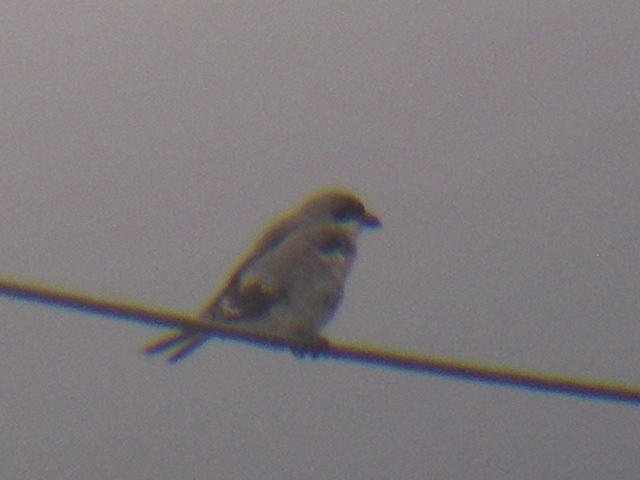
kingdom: Animalia
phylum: Chordata
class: Aves
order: Passeriformes
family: Laniidae
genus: Lanius
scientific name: Lanius minor
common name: Lesser grey shrike
